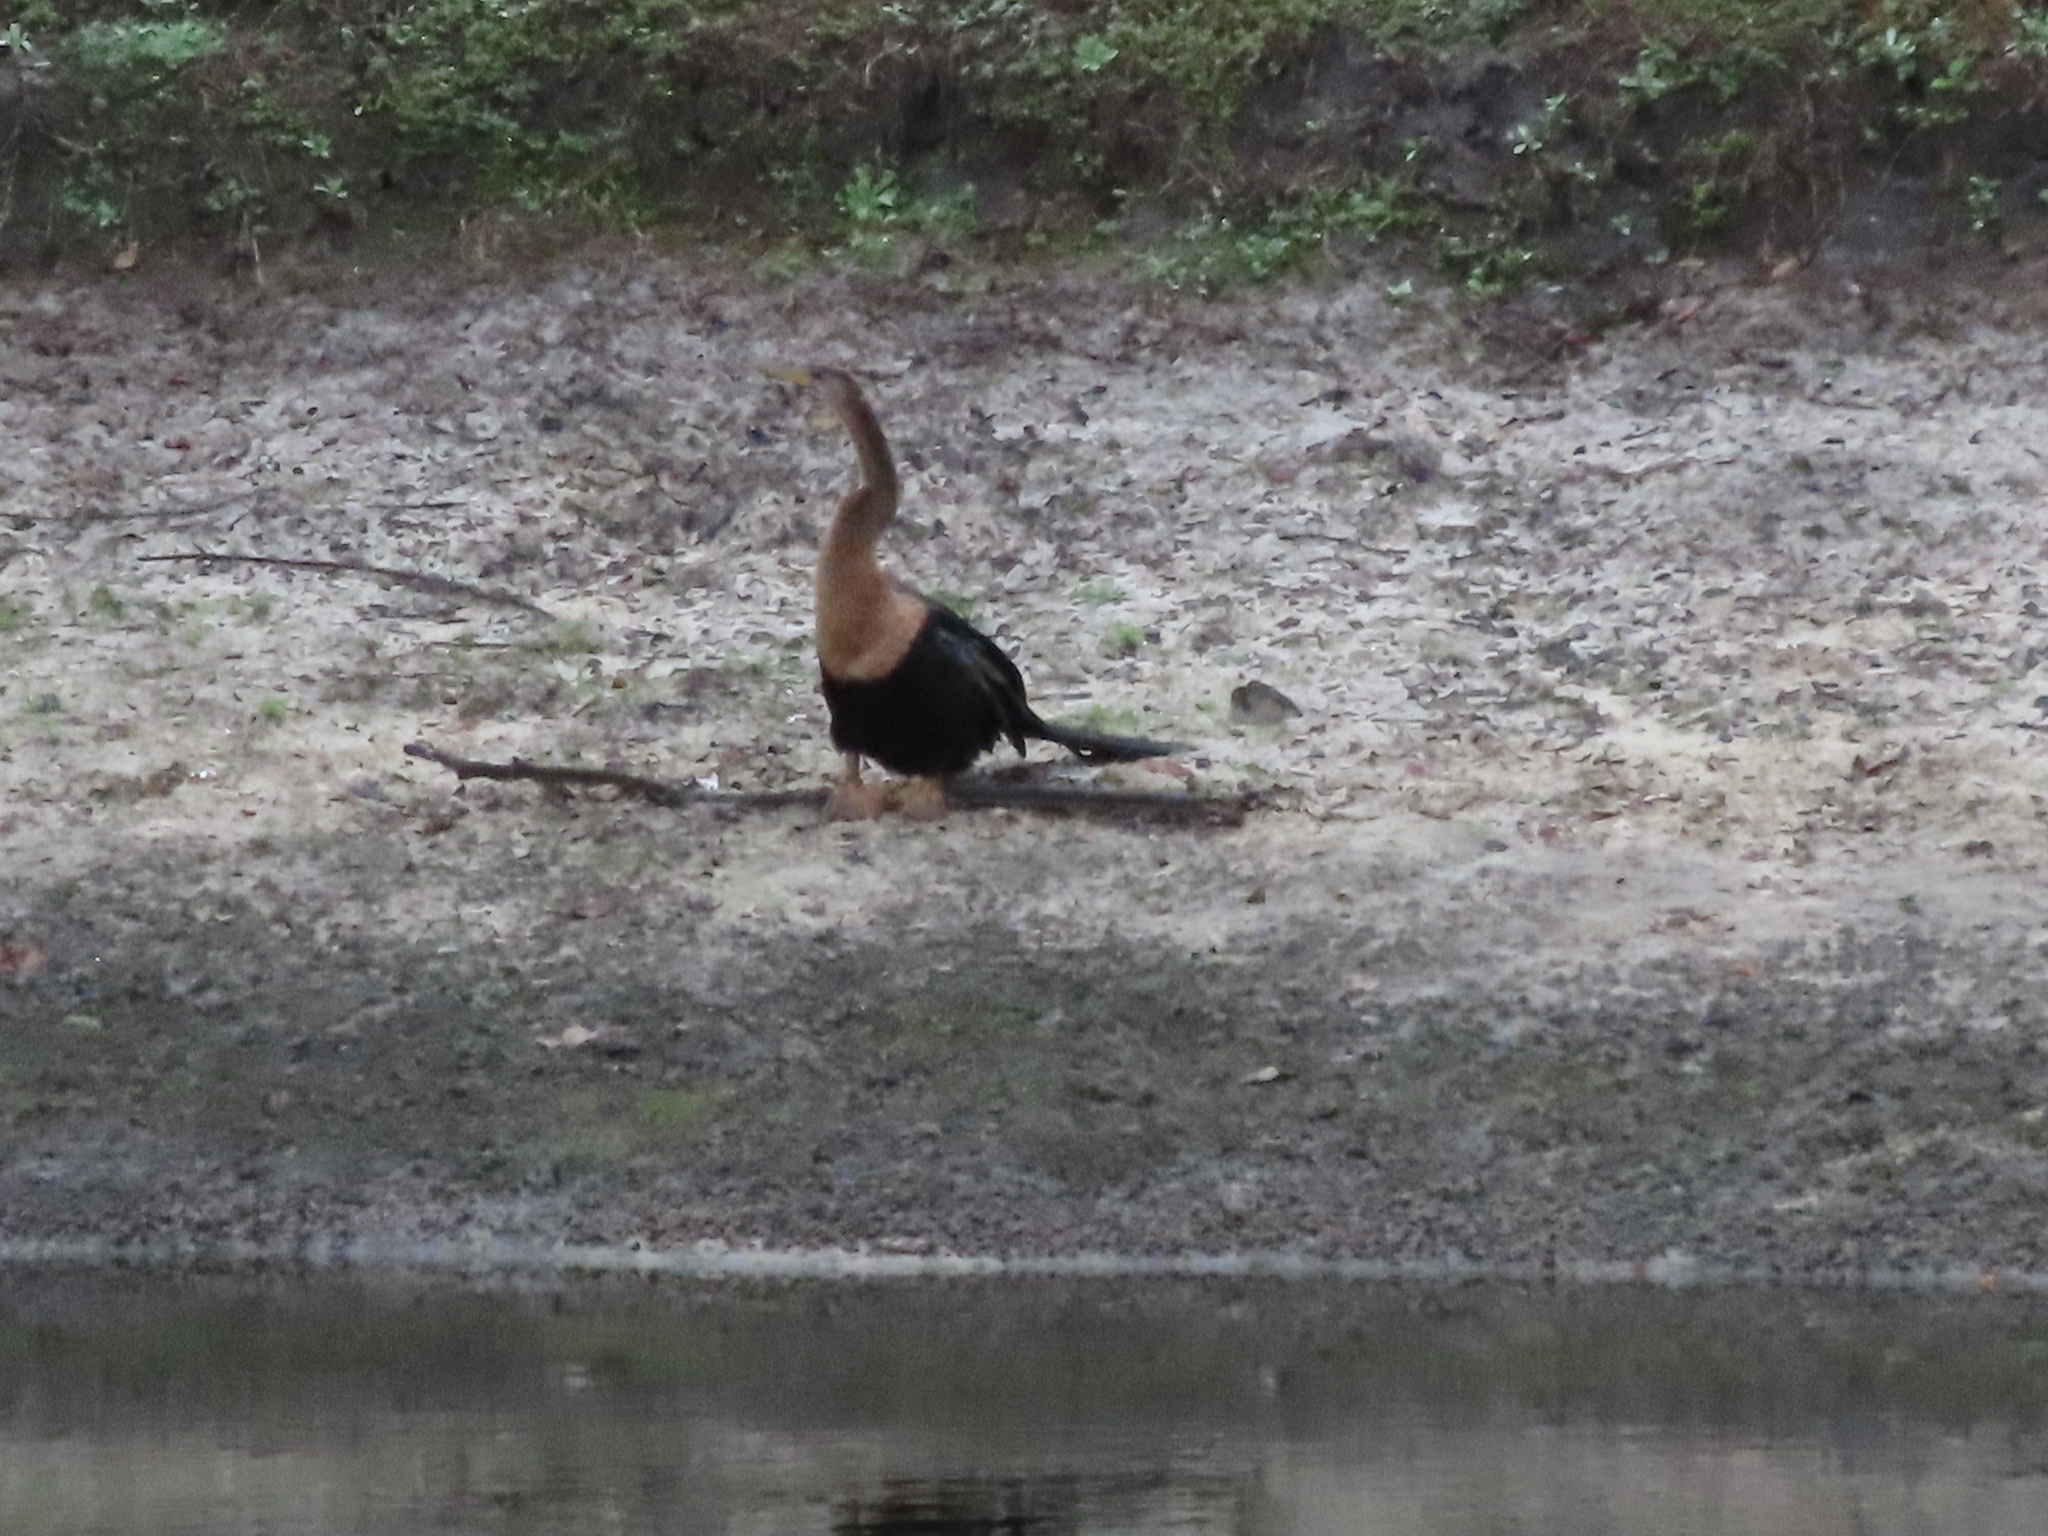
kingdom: Animalia
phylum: Chordata
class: Aves
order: Suliformes
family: Anhingidae
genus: Anhinga
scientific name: Anhinga anhinga
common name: Anhinga
